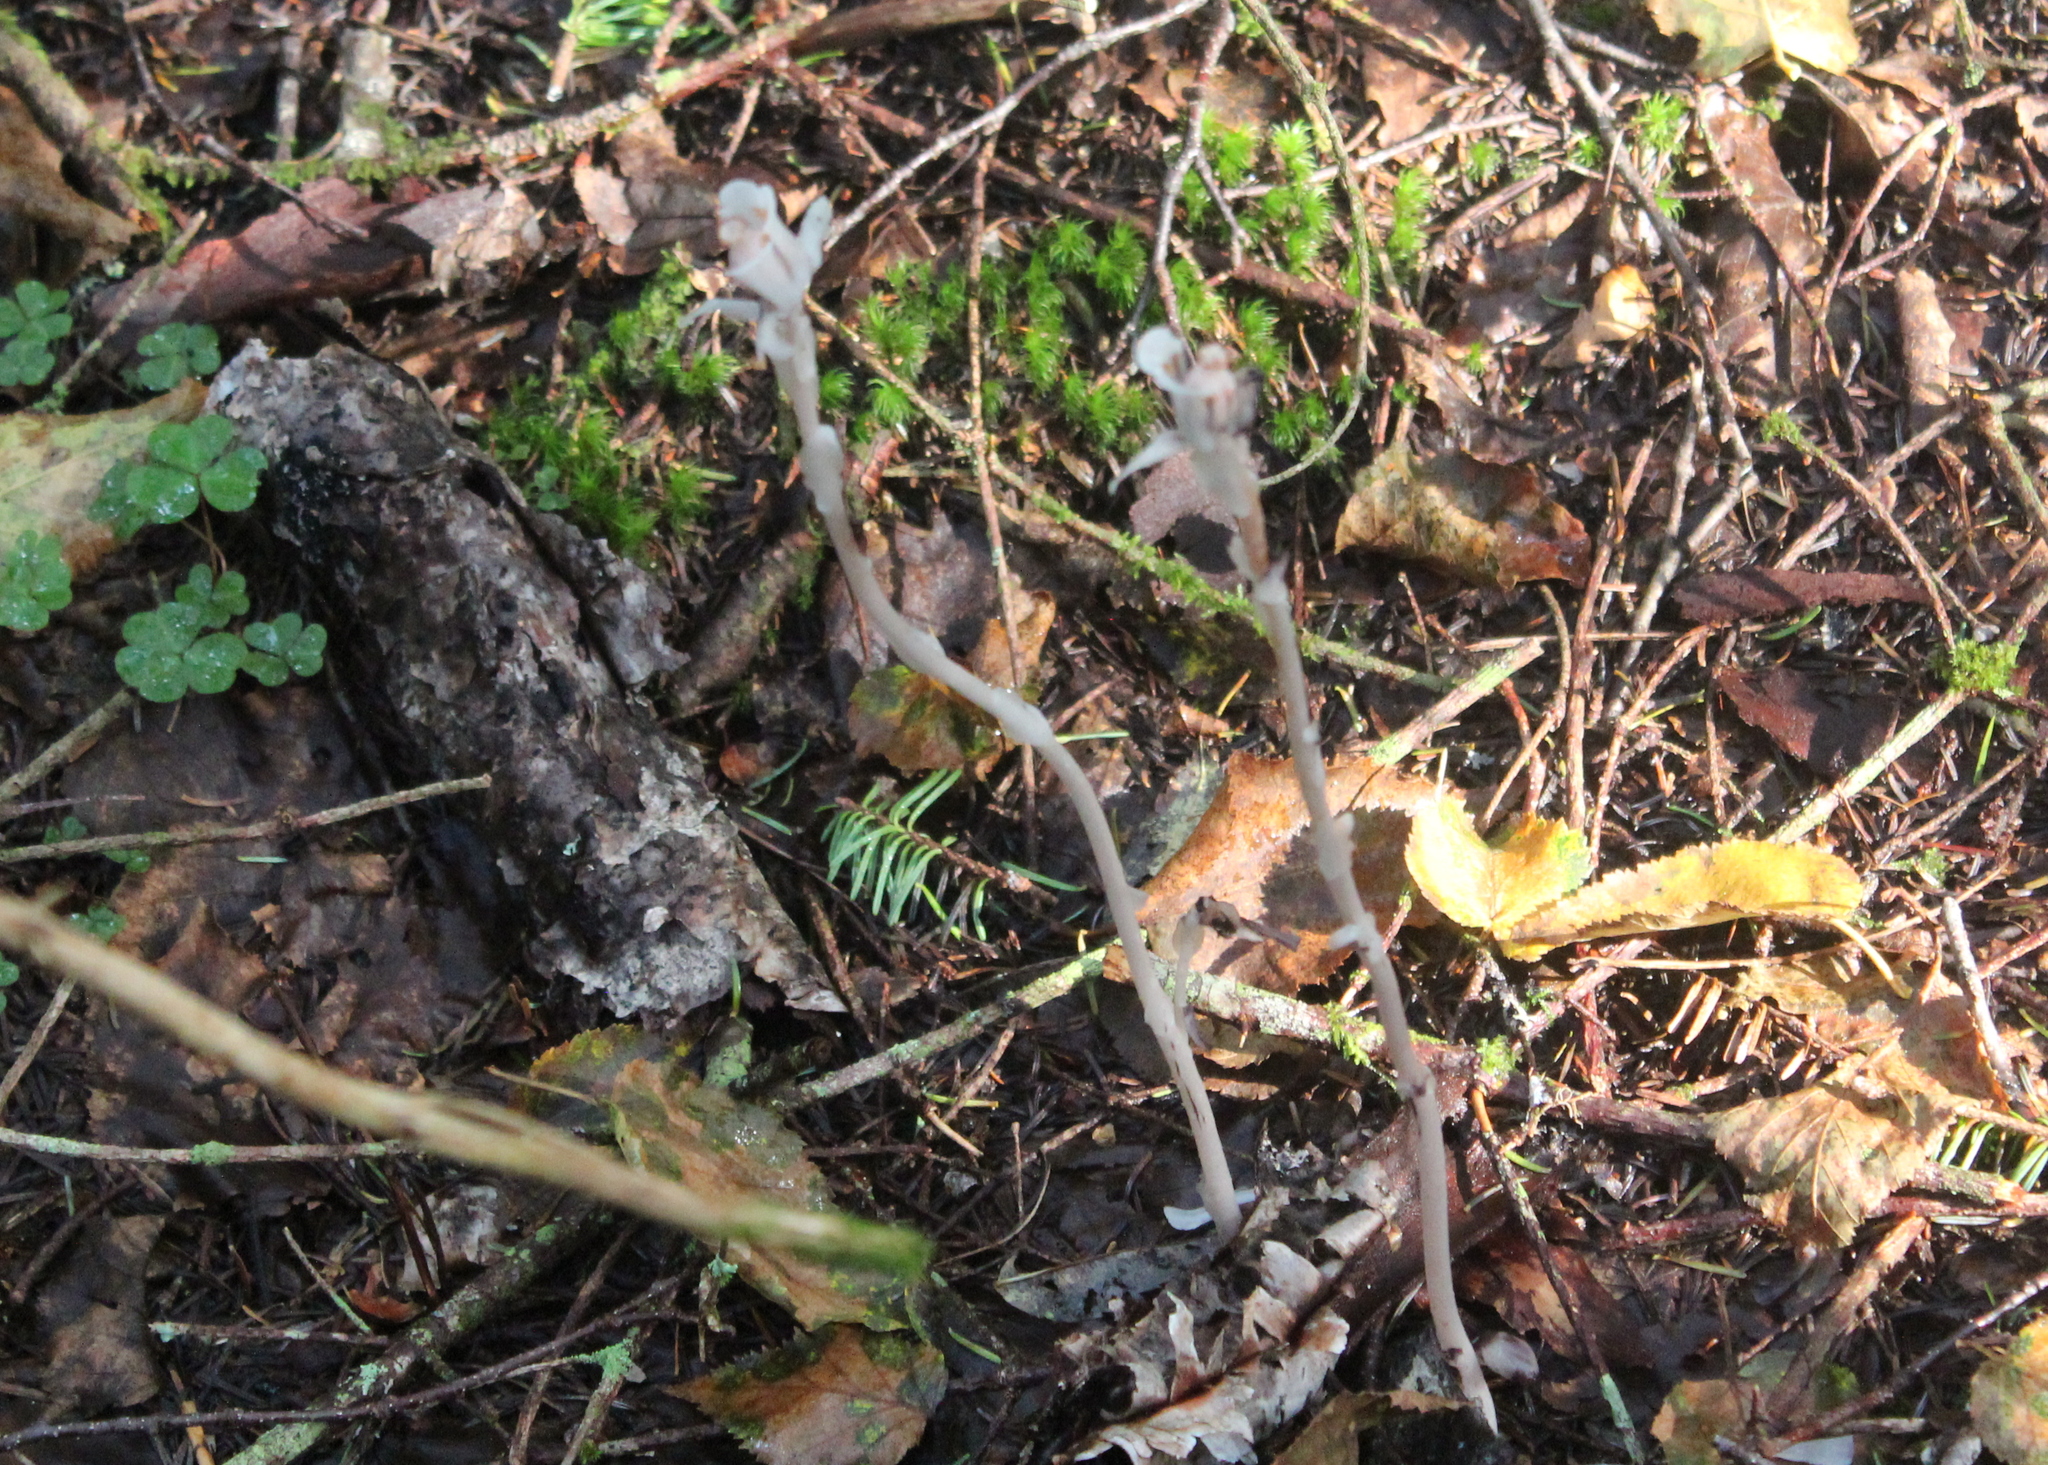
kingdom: Plantae
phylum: Tracheophyta
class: Magnoliopsida
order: Ericales
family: Ericaceae
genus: Monotropa
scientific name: Monotropa uniflora
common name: Convulsion root
